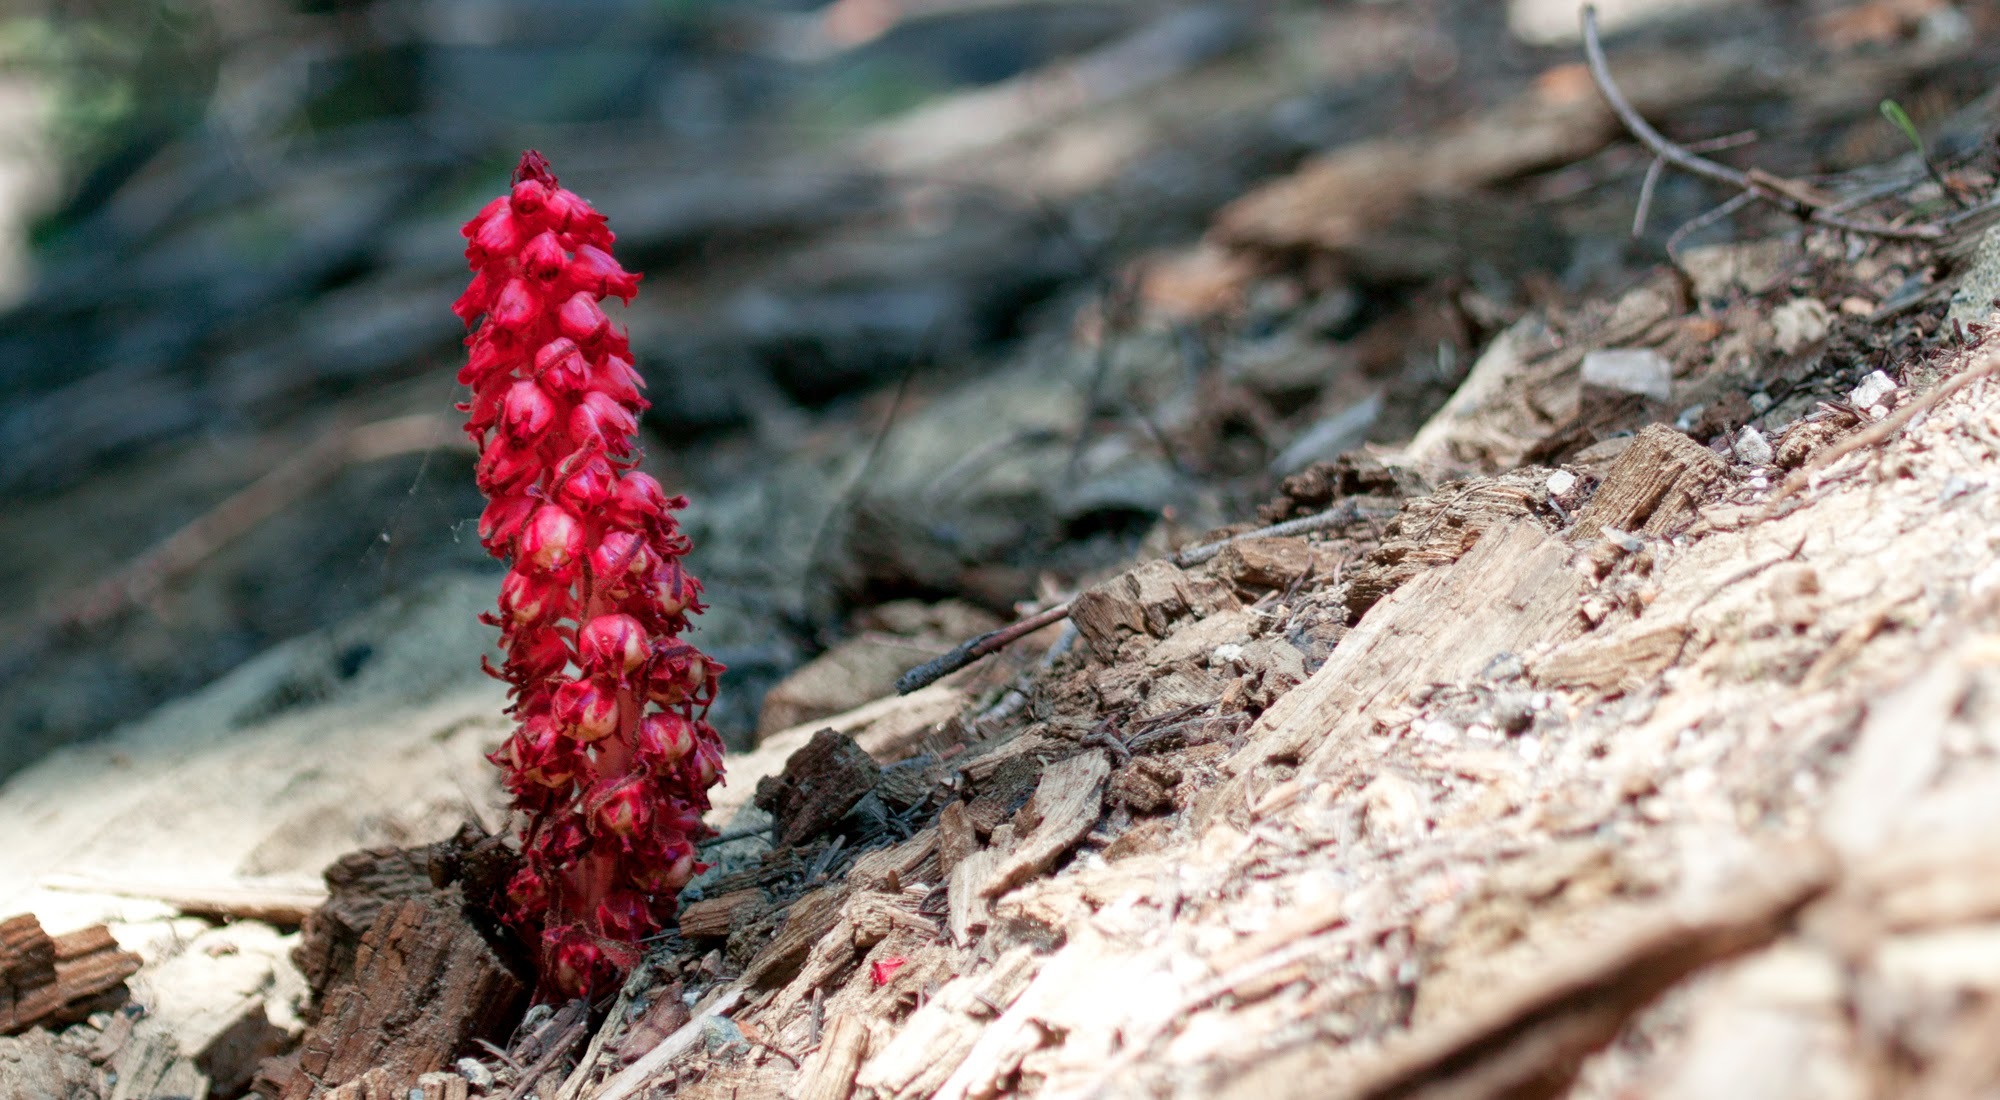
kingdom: Plantae
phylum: Tracheophyta
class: Magnoliopsida
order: Ericales
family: Ericaceae
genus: Sarcodes
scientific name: Sarcodes sanguinea
